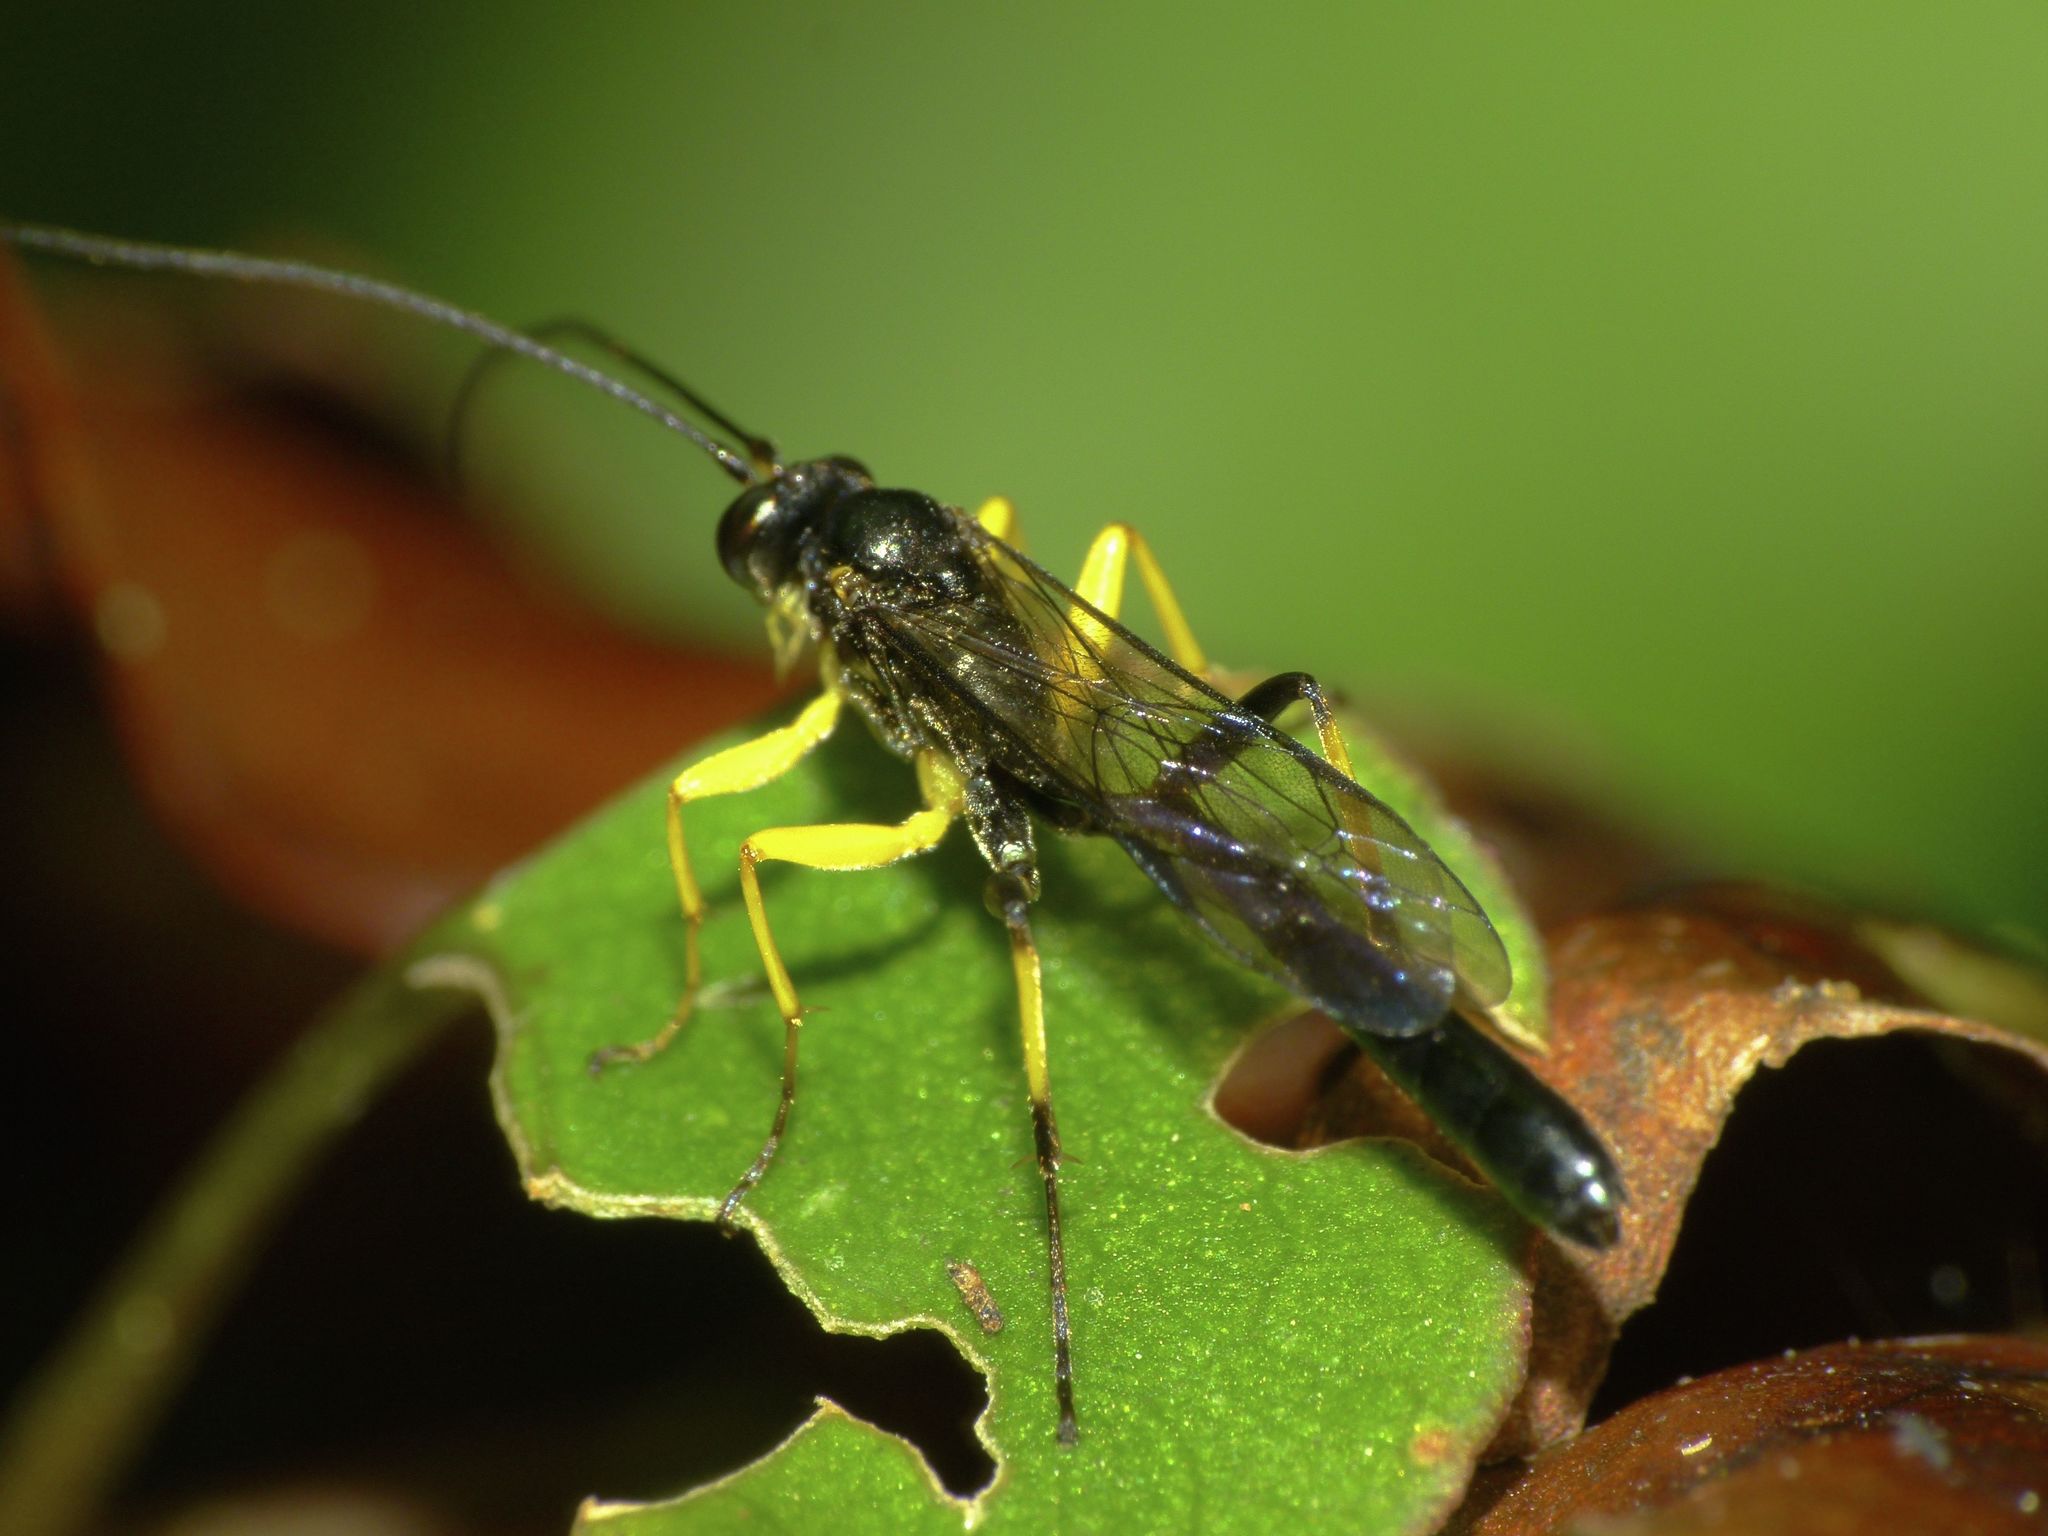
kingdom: Animalia
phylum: Arthropoda
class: Insecta
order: Hymenoptera
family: Ichneumonidae
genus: Dusona
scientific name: Dusona destructor
